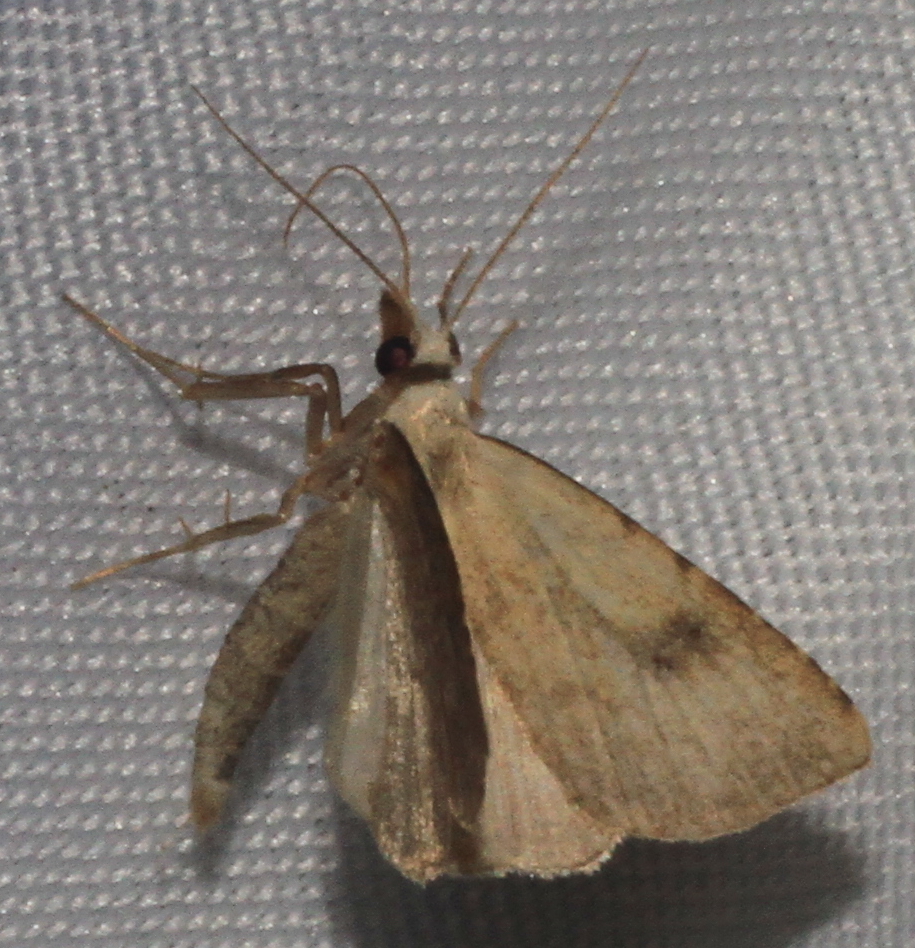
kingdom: Animalia
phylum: Arthropoda
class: Insecta
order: Lepidoptera
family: Erebidae
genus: Rivula
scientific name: Rivula sericealis
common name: Straw dot
